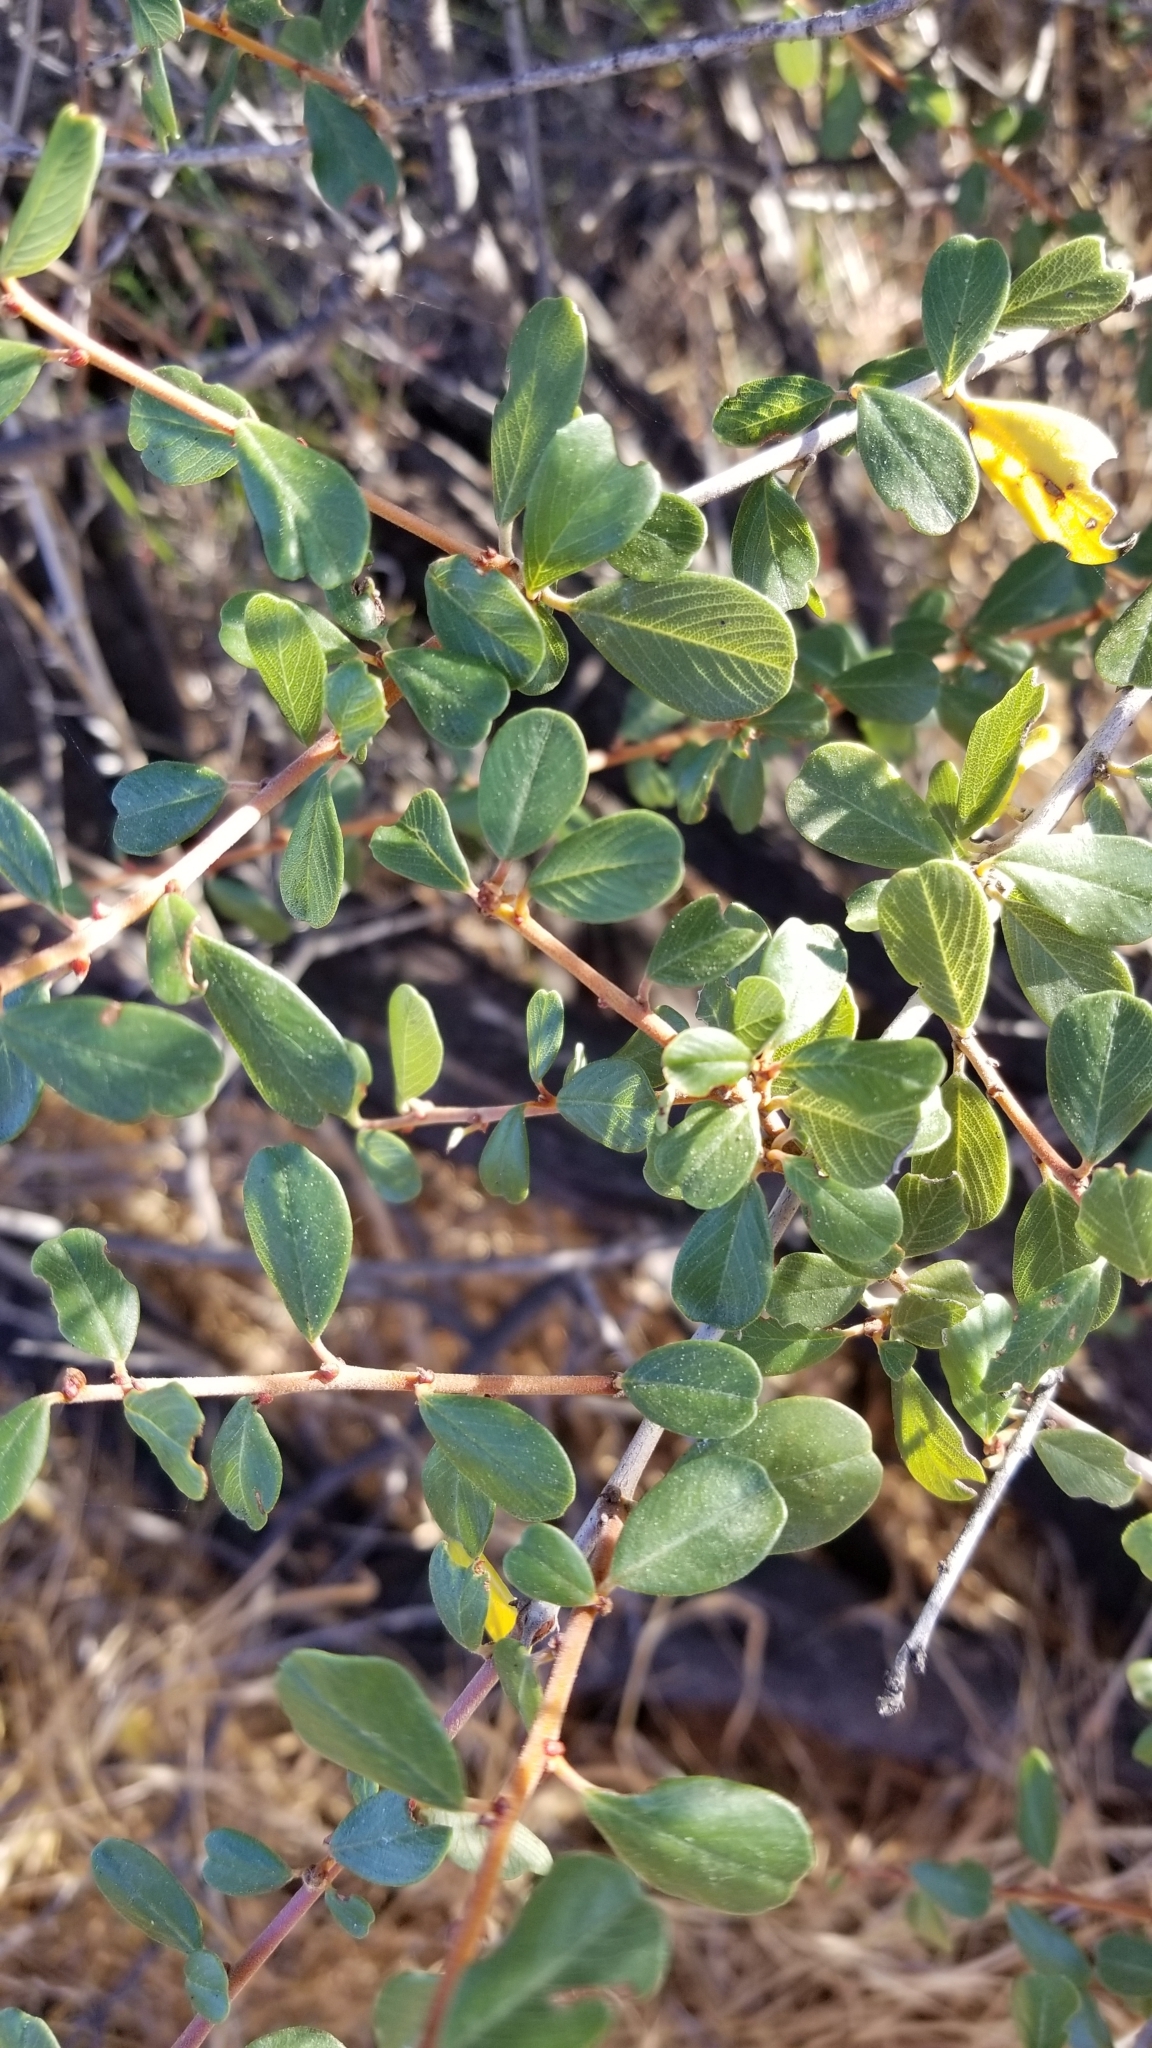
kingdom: Plantae
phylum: Tracheophyta
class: Magnoliopsida
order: Rosales
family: Rhamnaceae
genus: Ceanothus
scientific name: Ceanothus megacarpus
